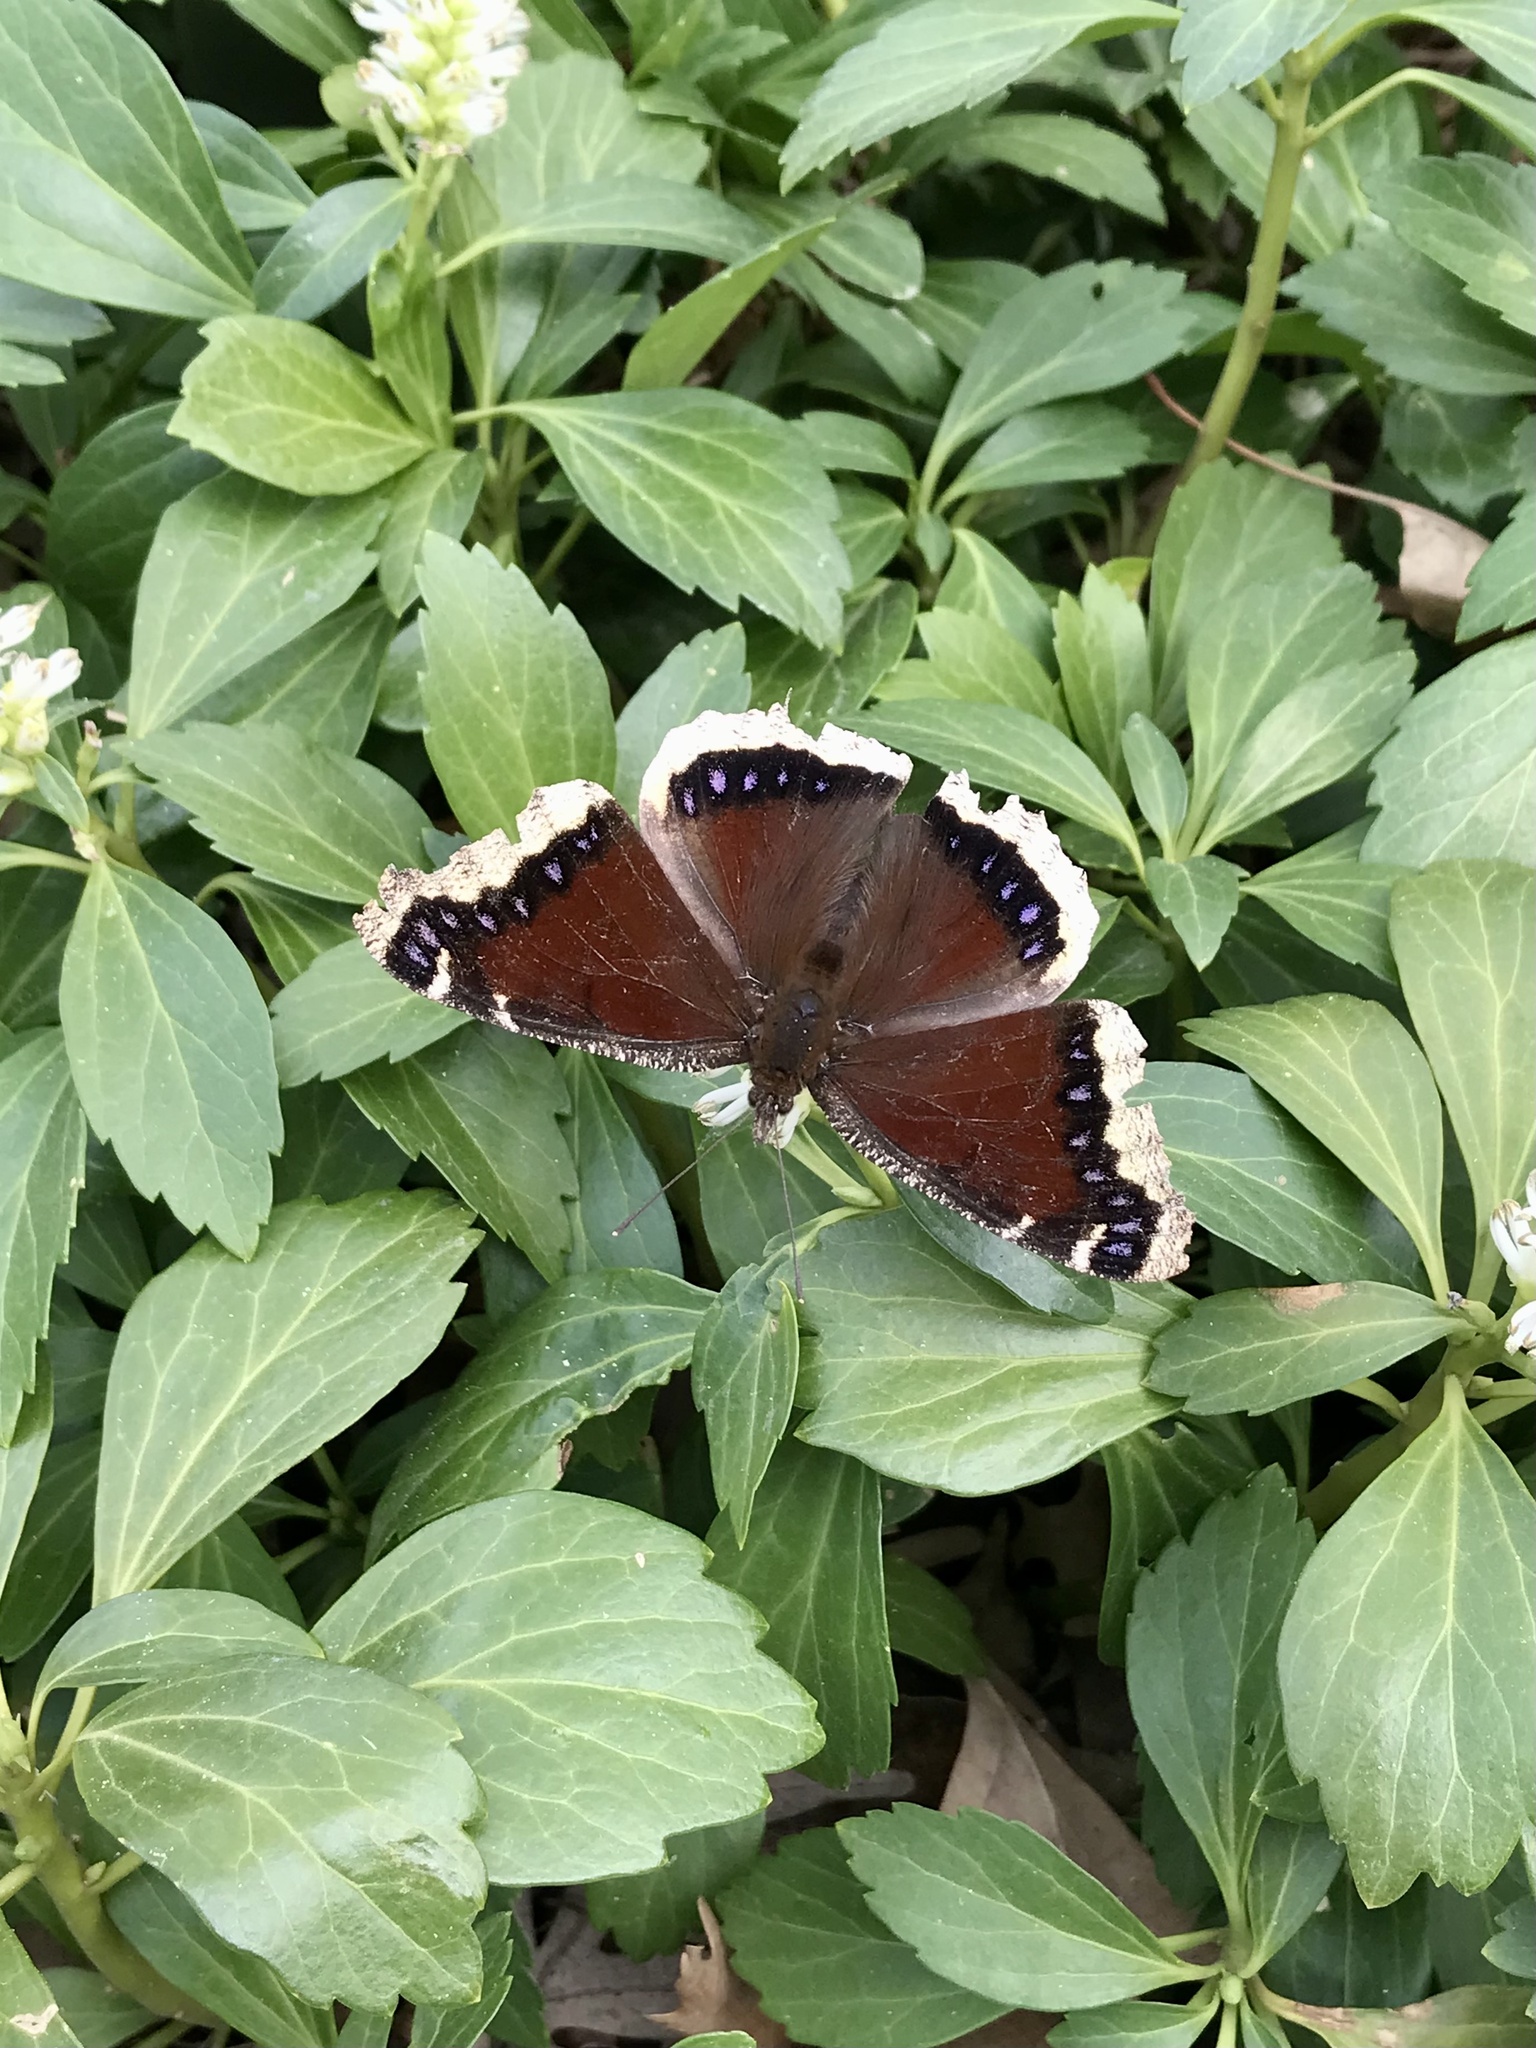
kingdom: Animalia
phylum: Arthropoda
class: Insecta
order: Lepidoptera
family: Nymphalidae
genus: Nymphalis
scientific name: Nymphalis antiopa
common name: Camberwell beauty
